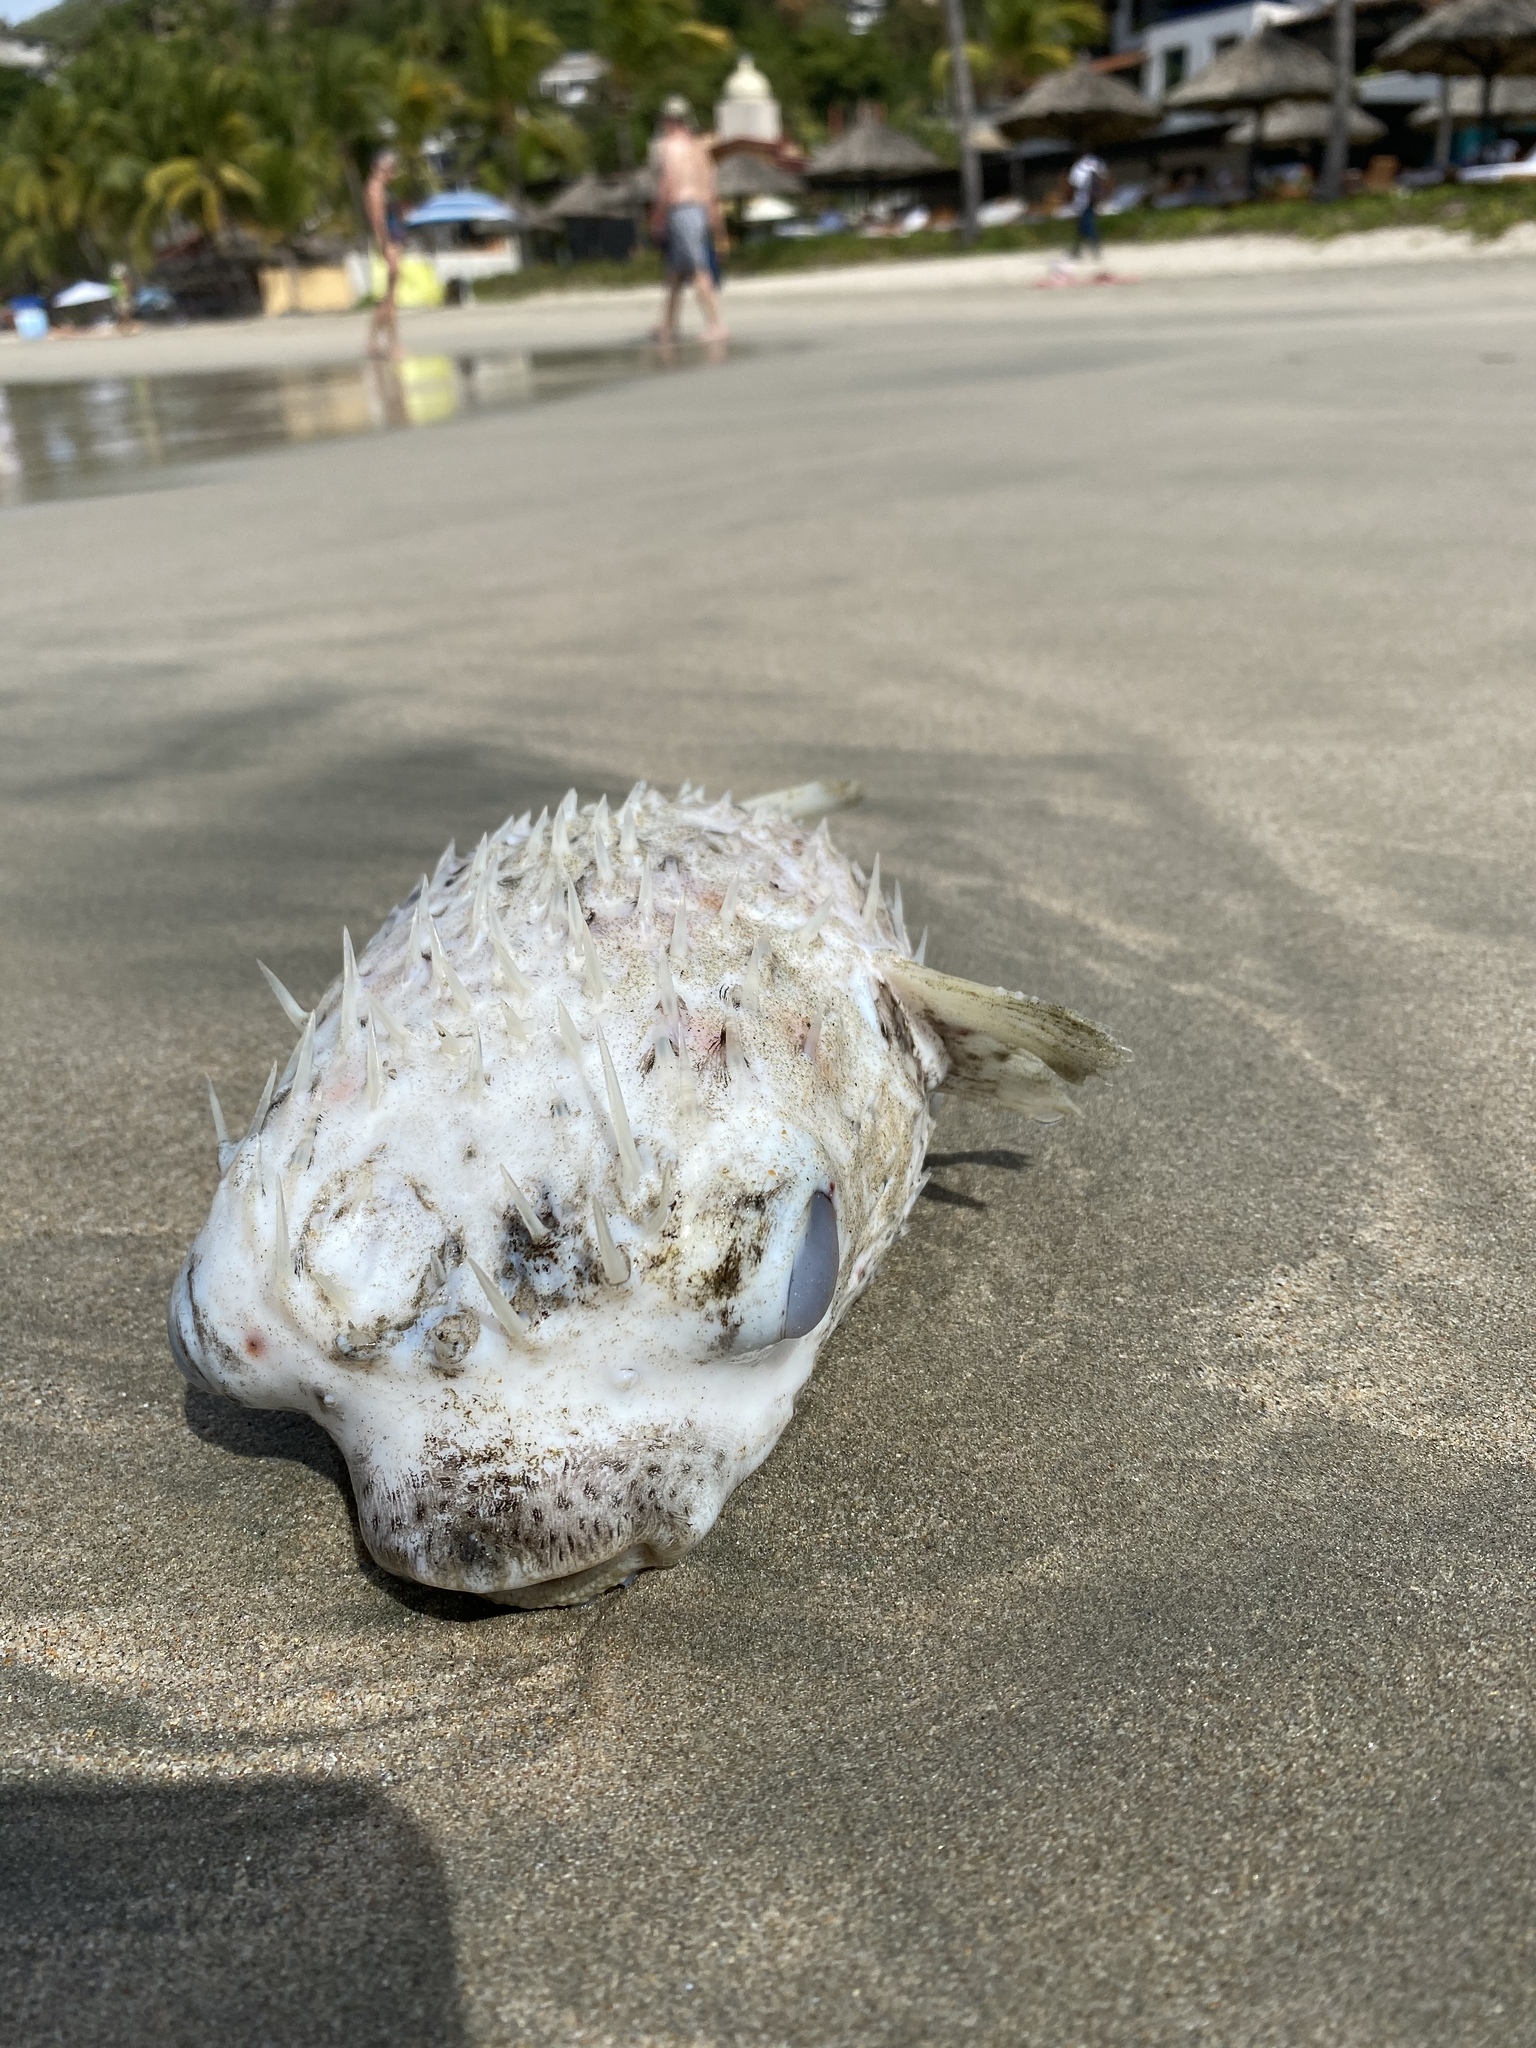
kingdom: Animalia
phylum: Chordata
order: Tetraodontiformes
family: Diodontidae
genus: Diodon
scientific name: Diodon hystrix
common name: Giant porcupinefish
